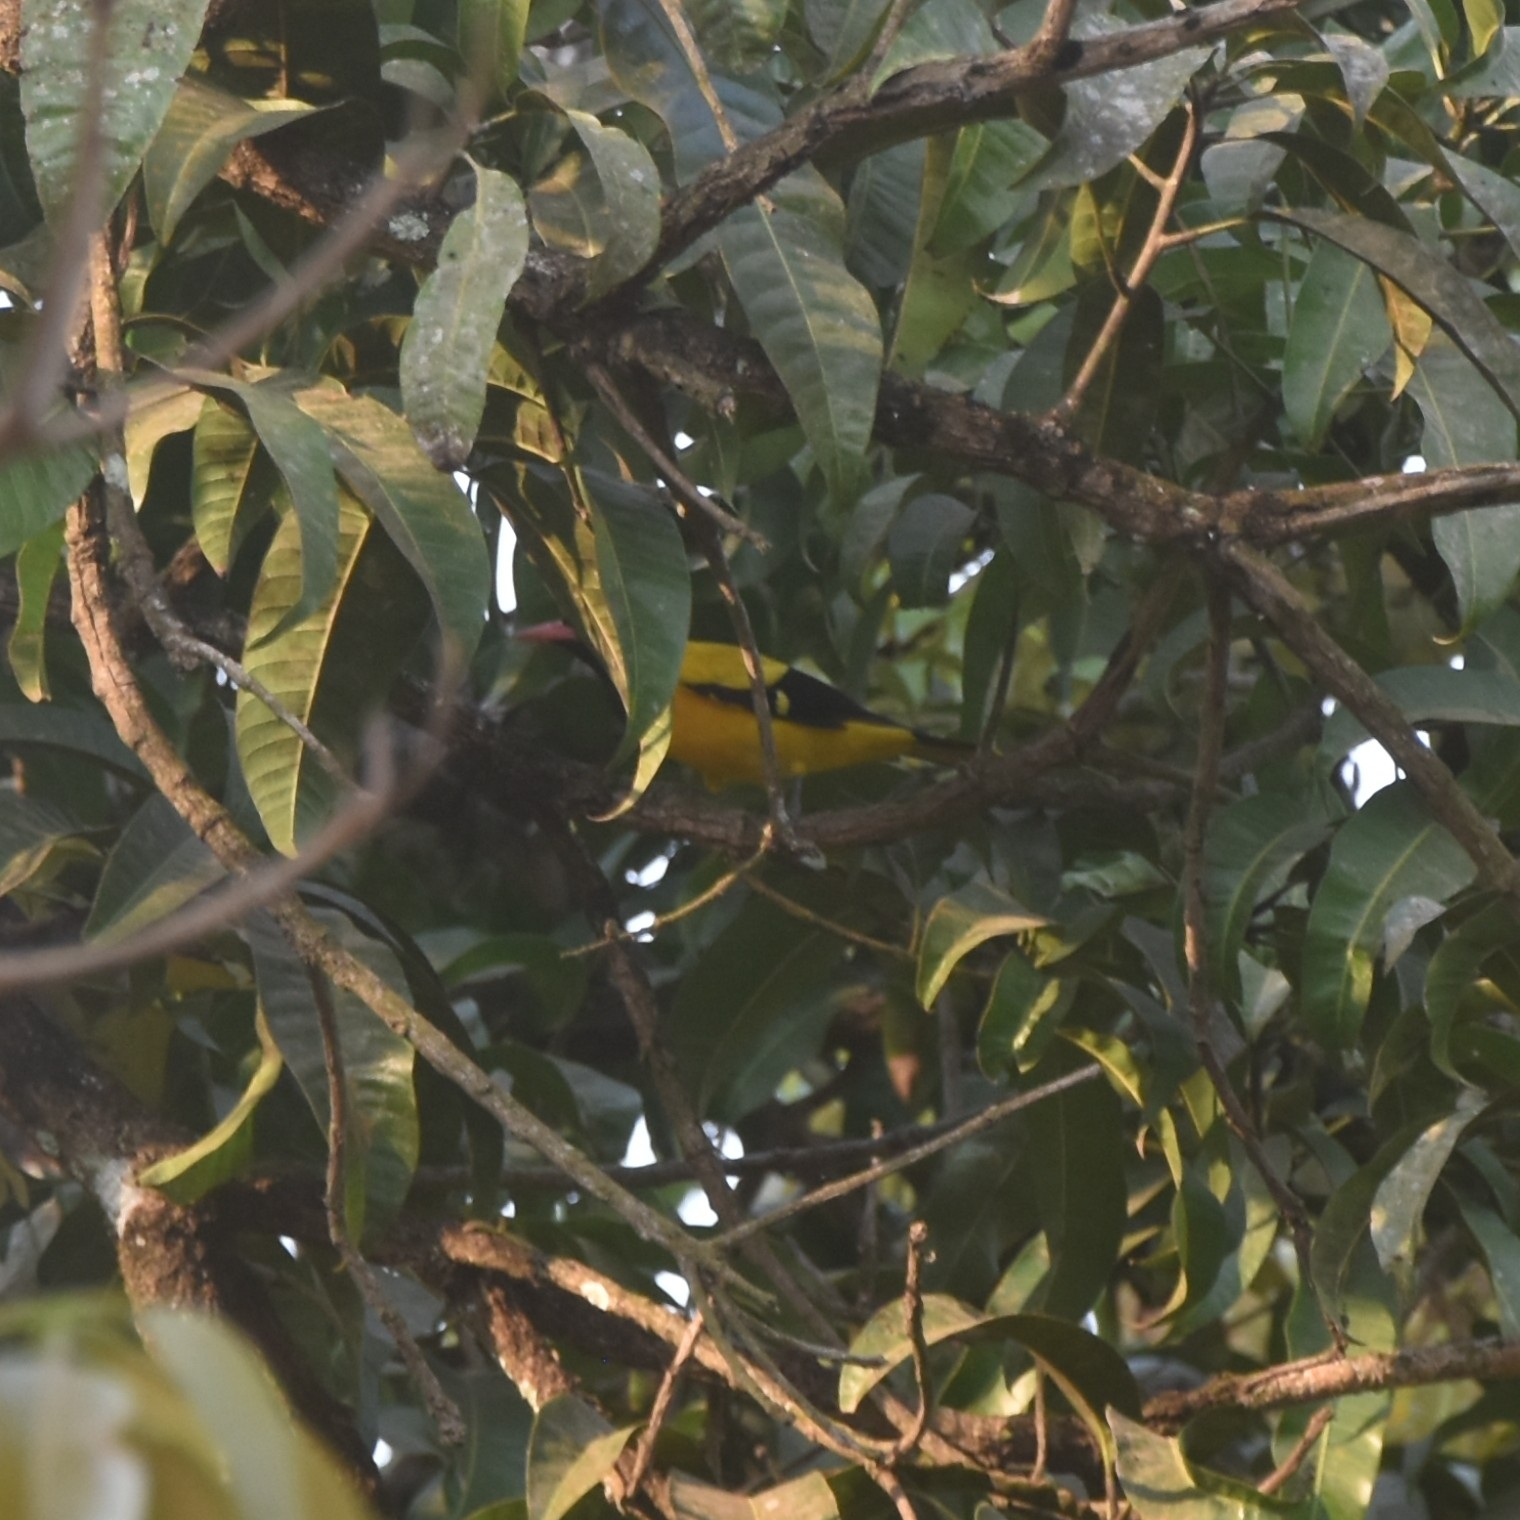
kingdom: Animalia
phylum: Chordata
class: Aves
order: Passeriformes
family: Oriolidae
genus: Oriolus
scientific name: Oriolus xanthornus
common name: Black-hooded oriole
